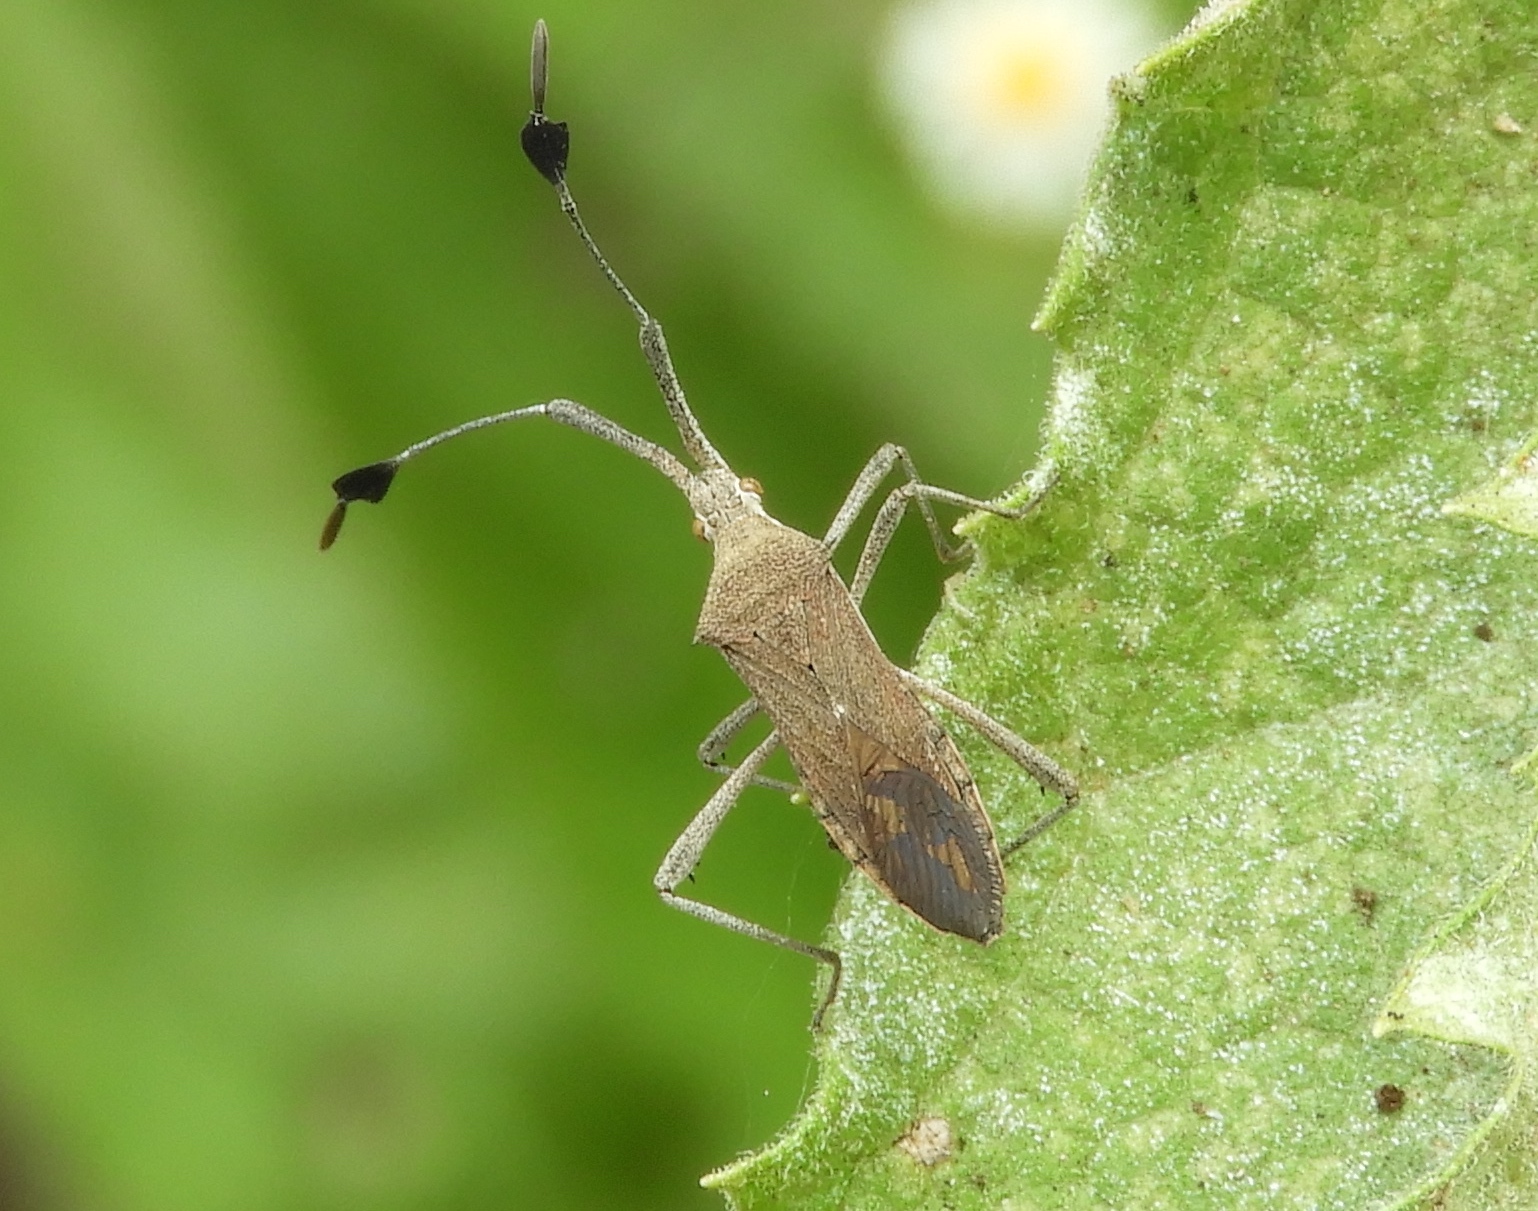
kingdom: Animalia
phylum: Arthropoda
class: Insecta
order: Hemiptera
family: Coreidae
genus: Chariesterus
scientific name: Chariesterus
